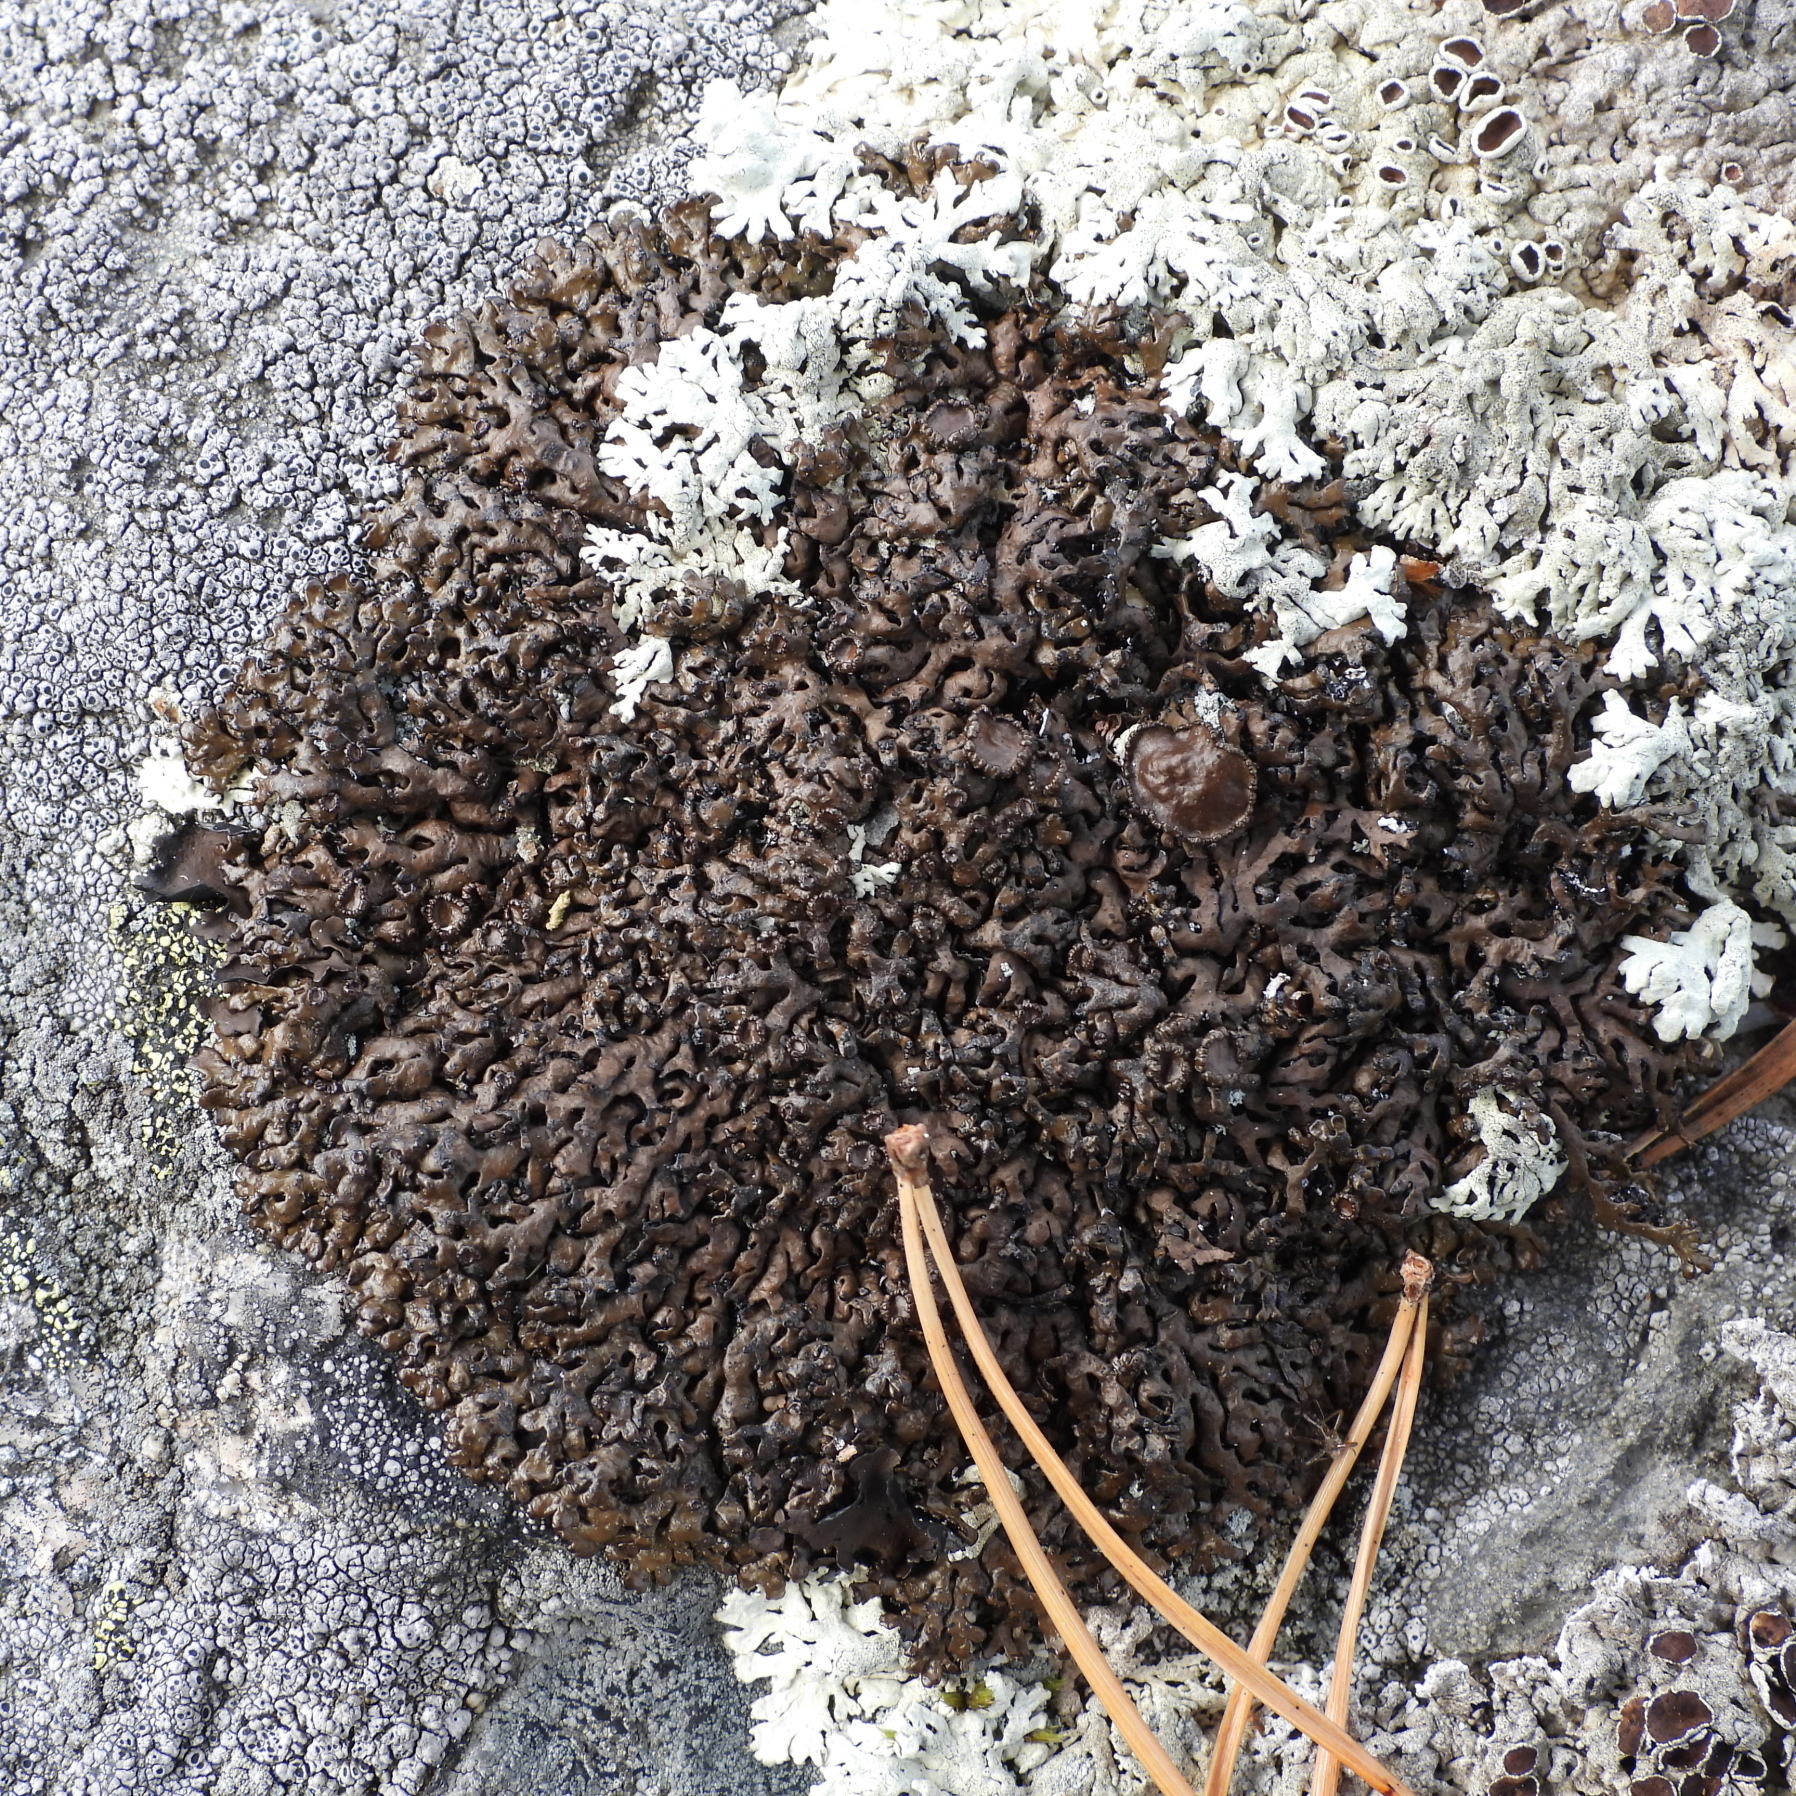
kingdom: Fungi
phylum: Ascomycota
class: Lecanoromycetes
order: Lecanorales
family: Parmeliaceae
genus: Melanelia
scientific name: Melanelia stygia
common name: Alpine camouflage lichen
